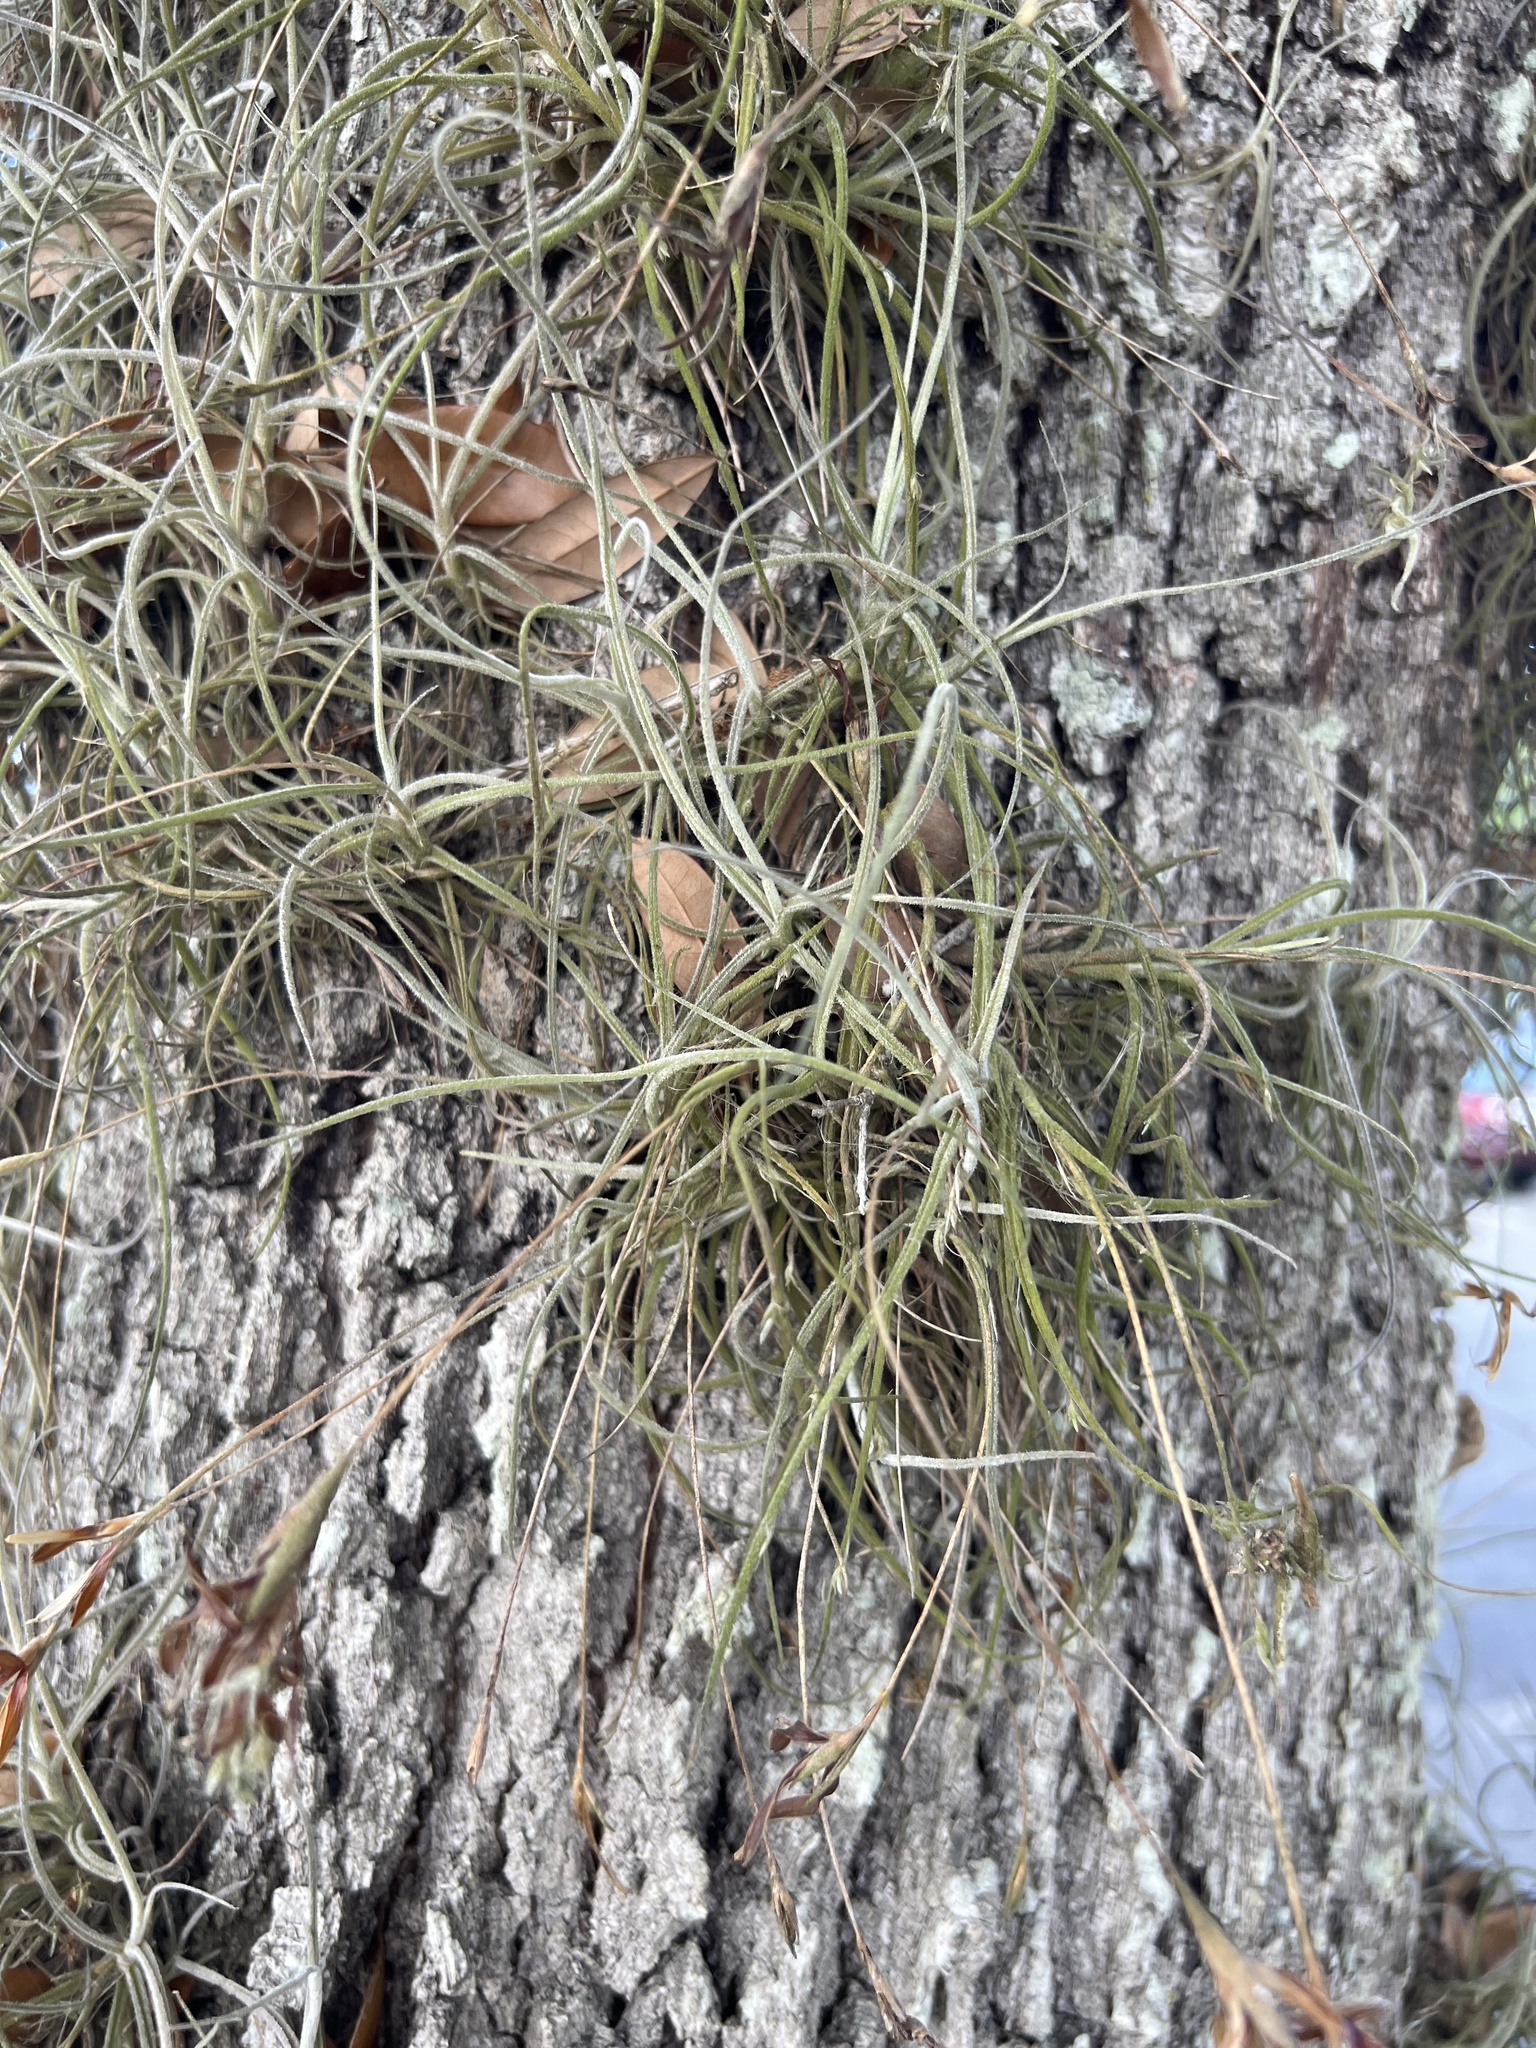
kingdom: Plantae
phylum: Tracheophyta
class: Liliopsida
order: Poales
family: Bromeliaceae
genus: Tillandsia
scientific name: Tillandsia recurvata
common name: Small ballmoss
